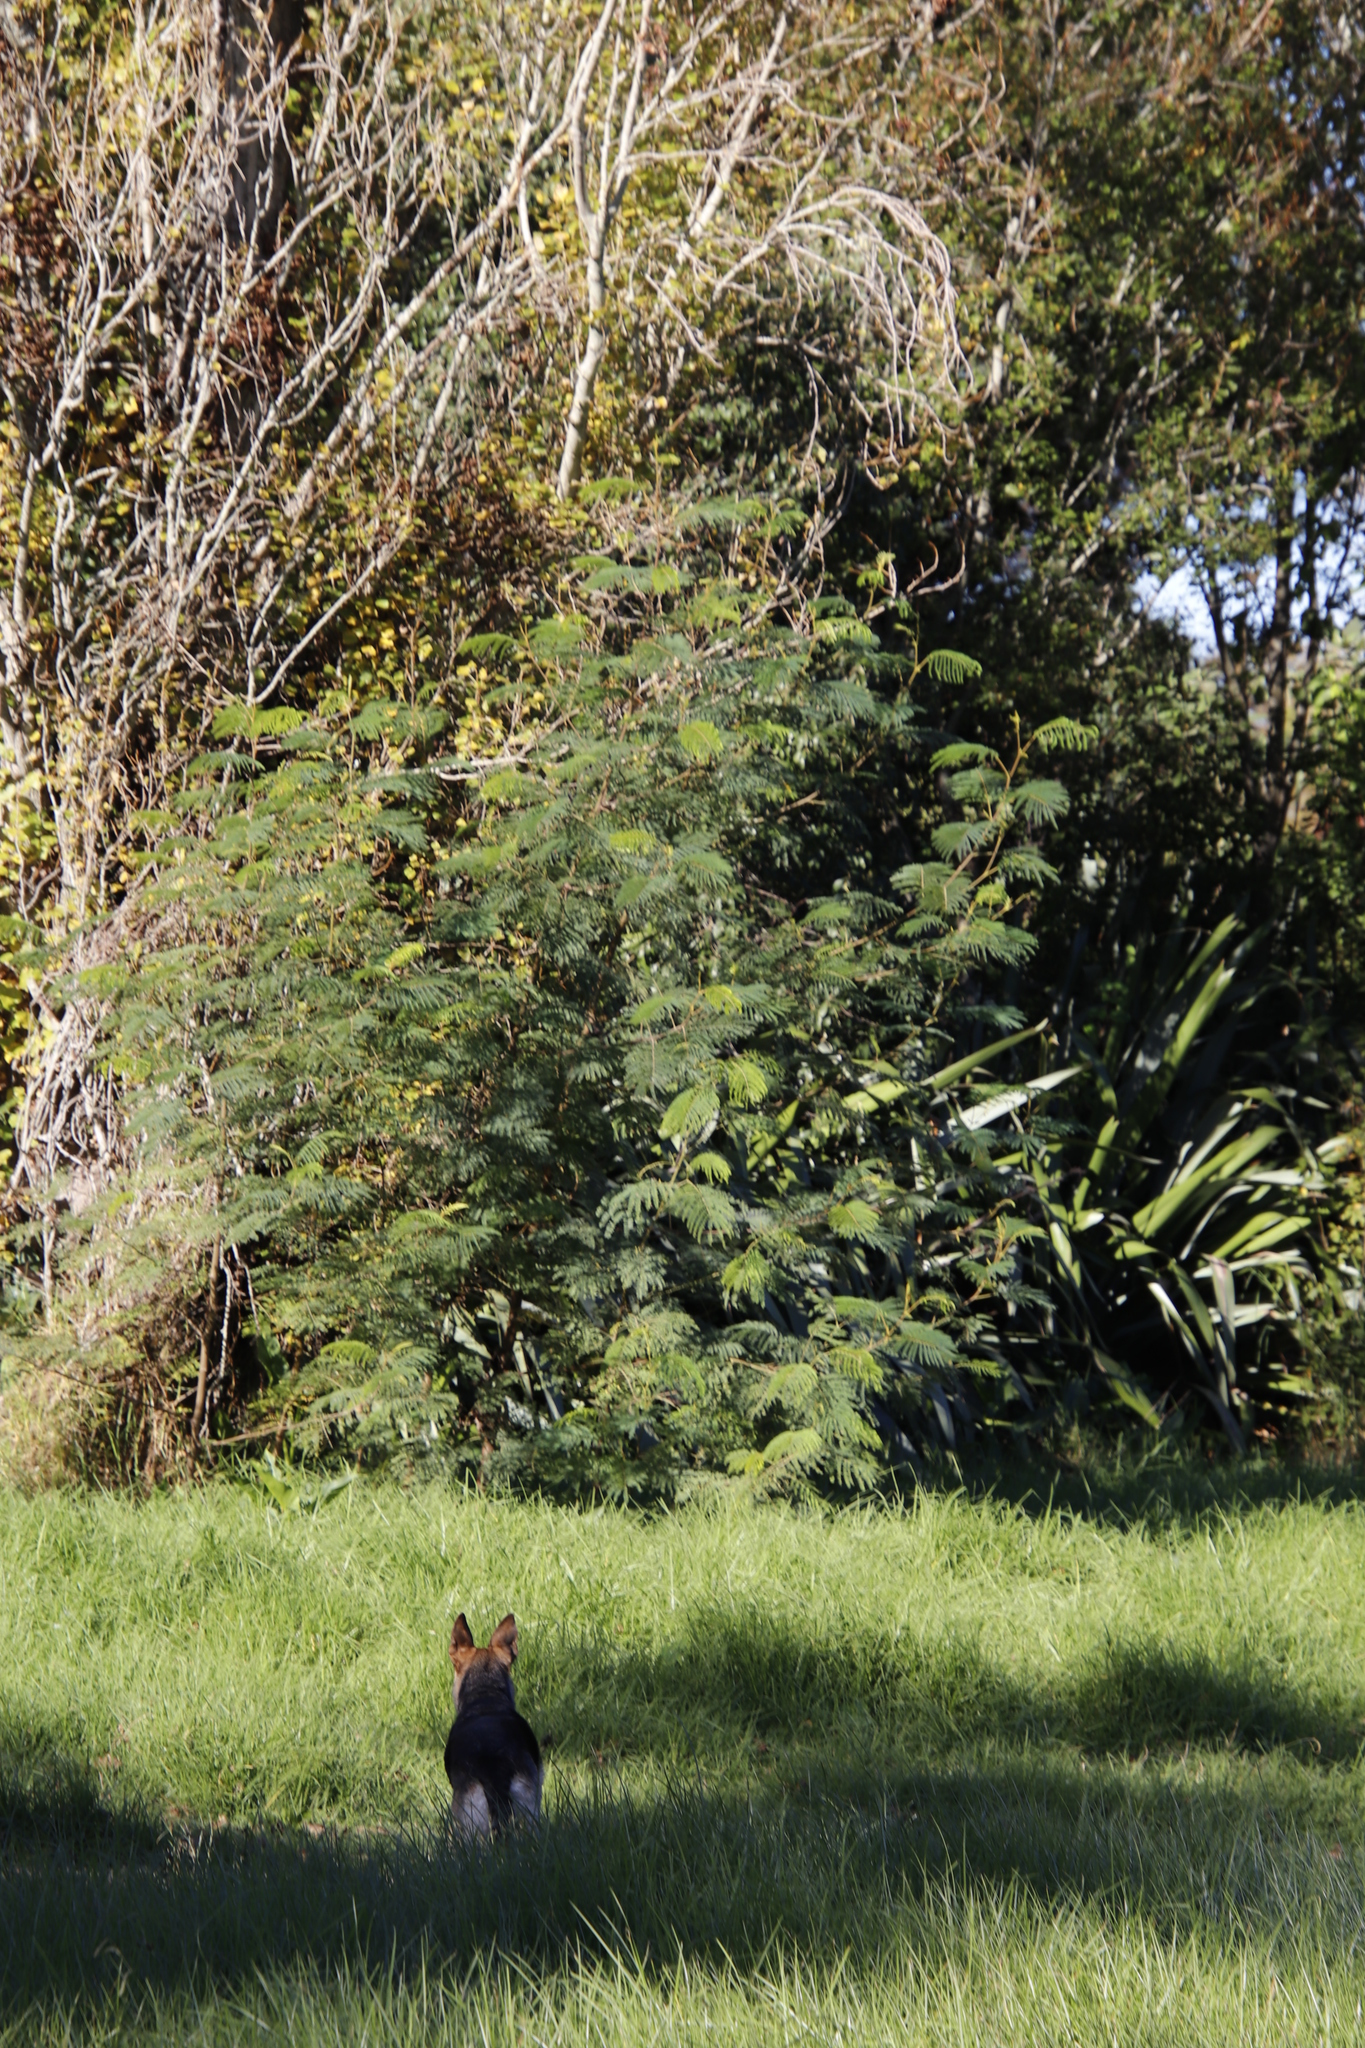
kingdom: Plantae
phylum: Tracheophyta
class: Magnoliopsida
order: Fabales
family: Fabaceae
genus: Paraserianthes
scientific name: Paraserianthes lophantha
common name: Plume albizia
